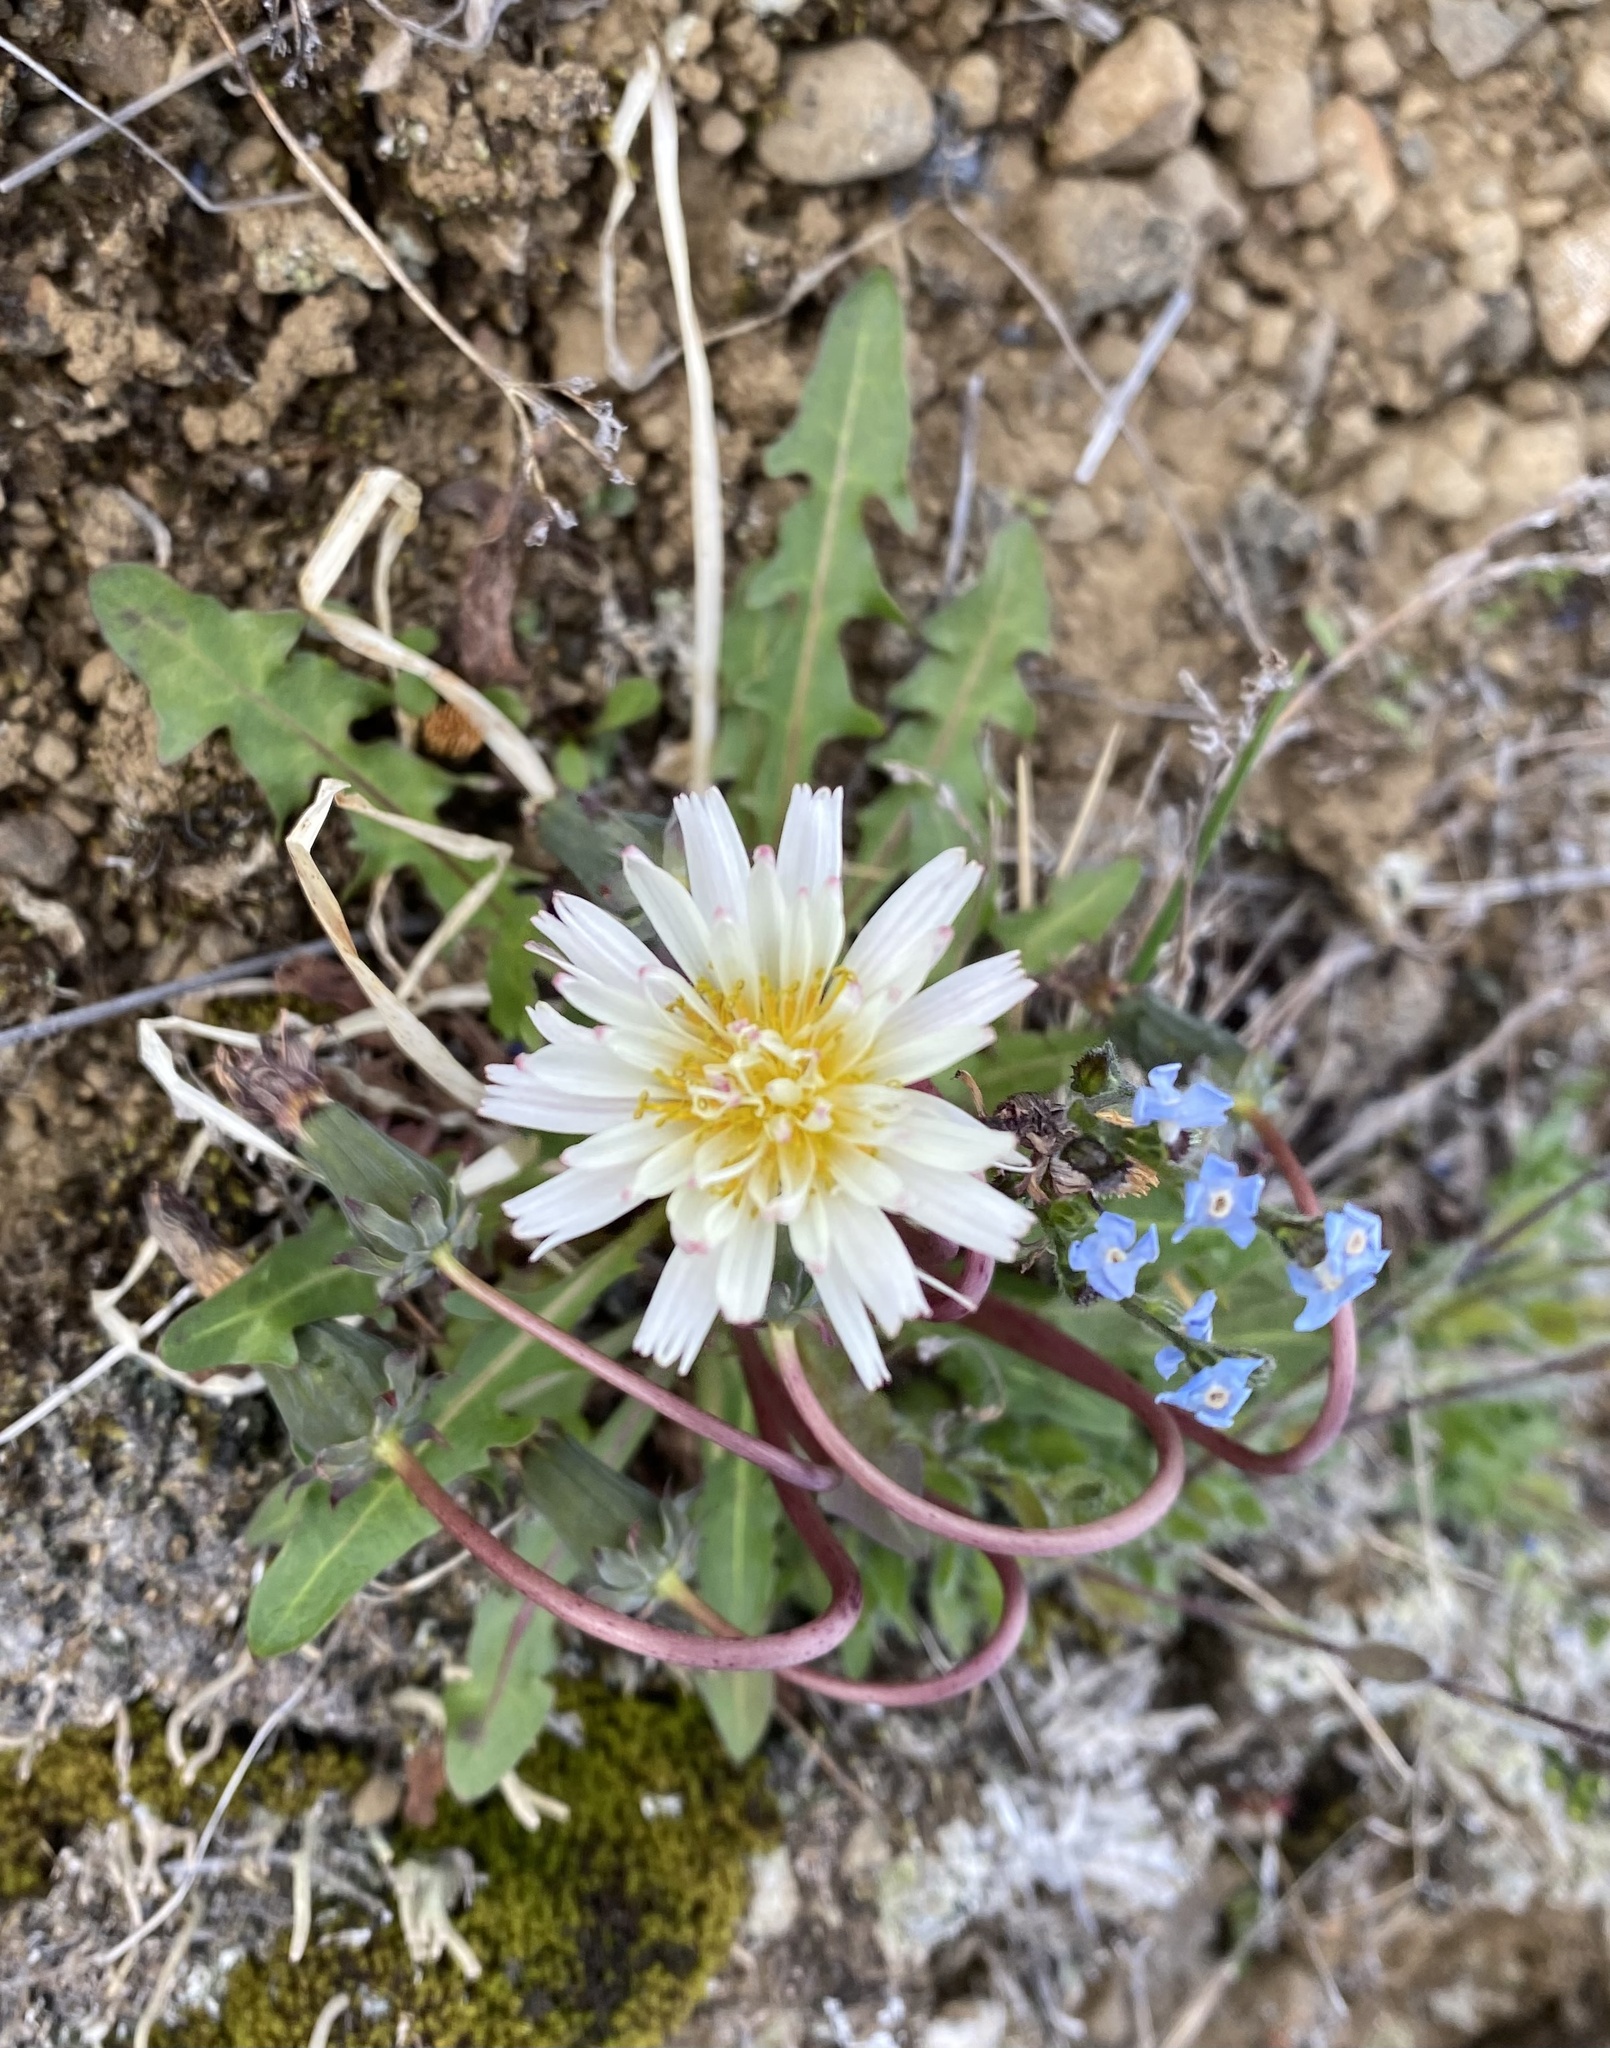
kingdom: Plantae
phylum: Tracheophyta
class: Magnoliopsida
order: Asterales
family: Asteraceae
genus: Taraxacum
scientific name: Taraxacum arcticum
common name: Arctic dandelion
